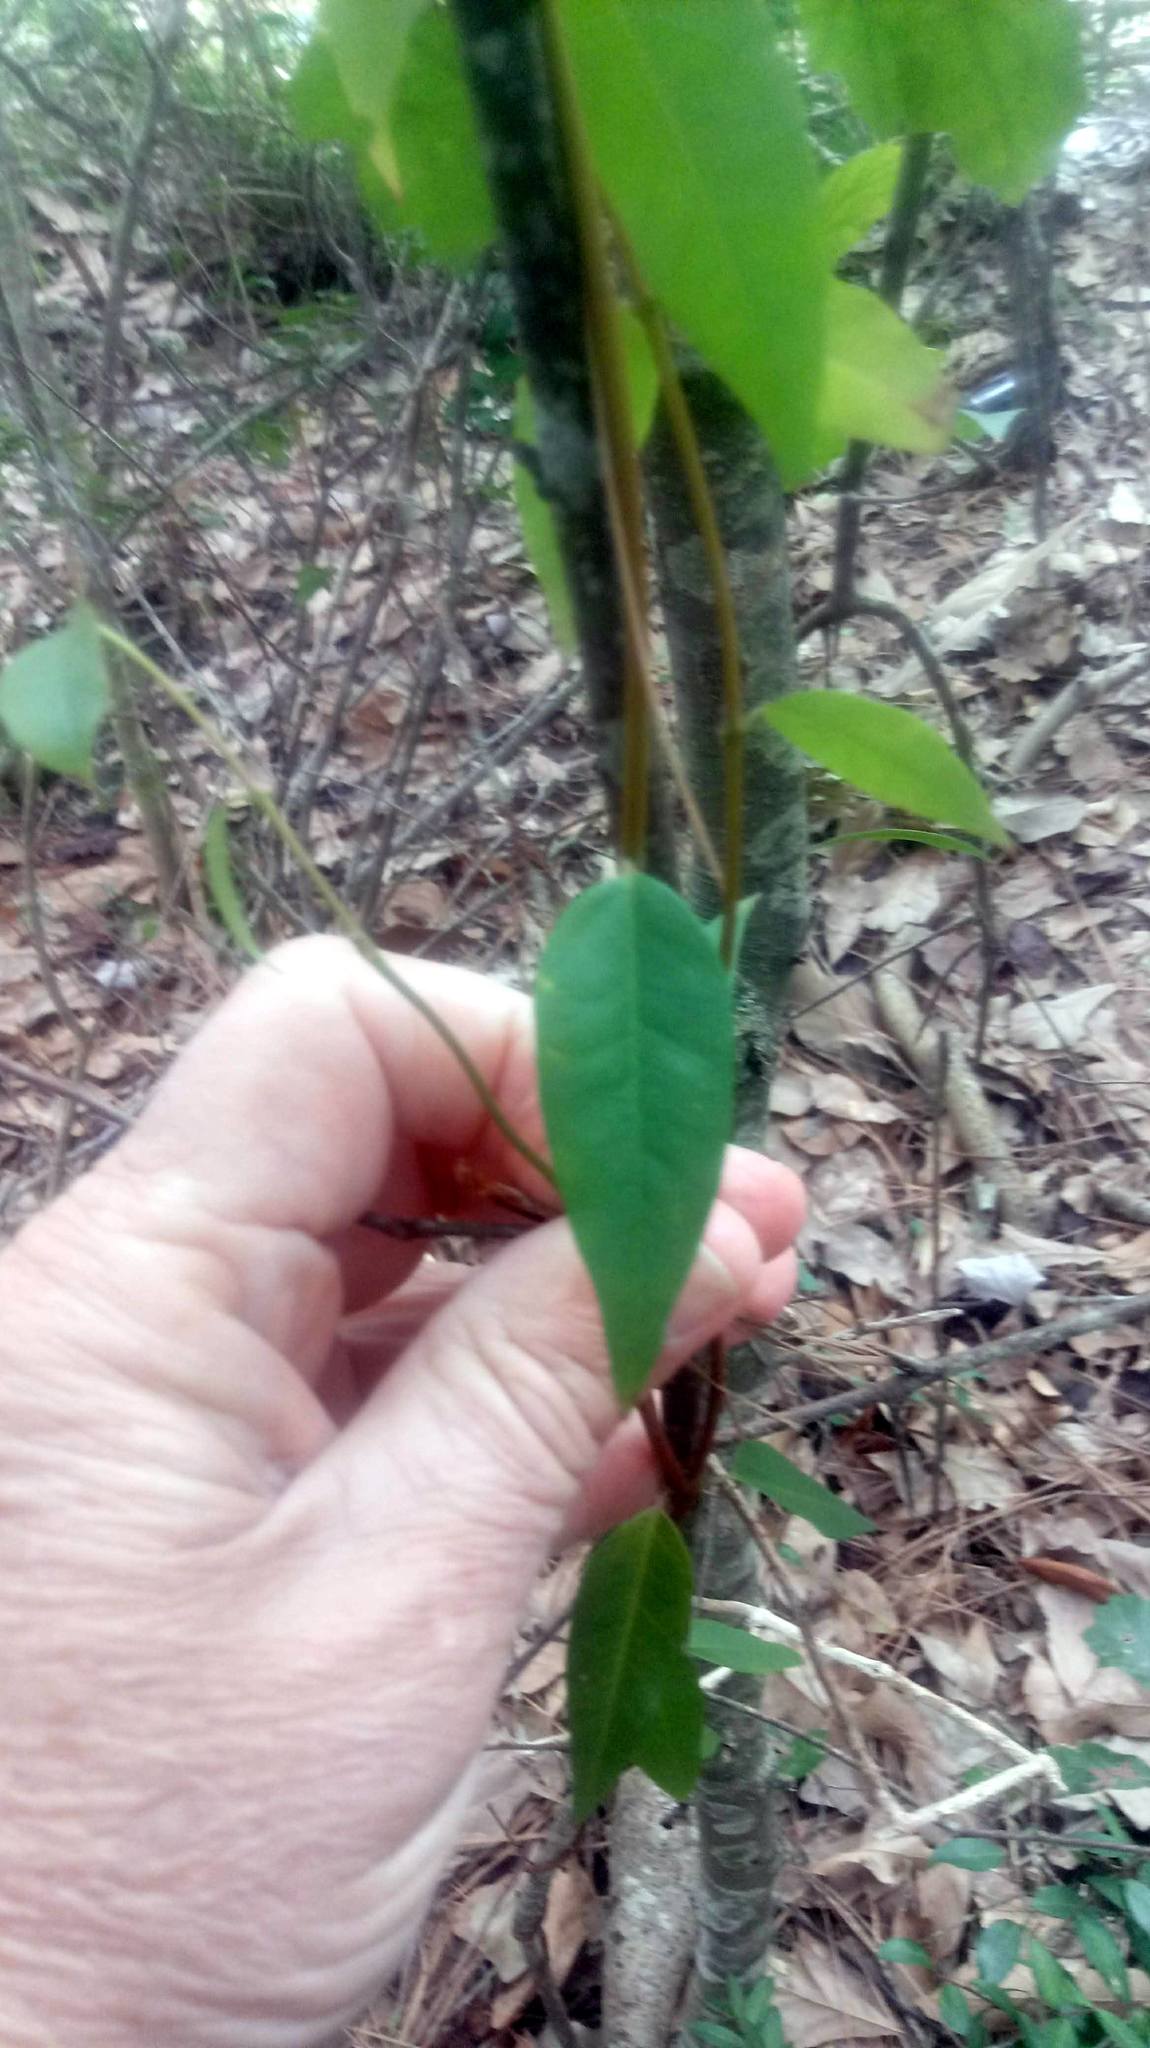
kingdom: Plantae
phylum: Tracheophyta
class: Magnoliopsida
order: Lamiales
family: Bignoniaceae
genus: Bignonia
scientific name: Bignonia capreolata
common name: Crossvine
